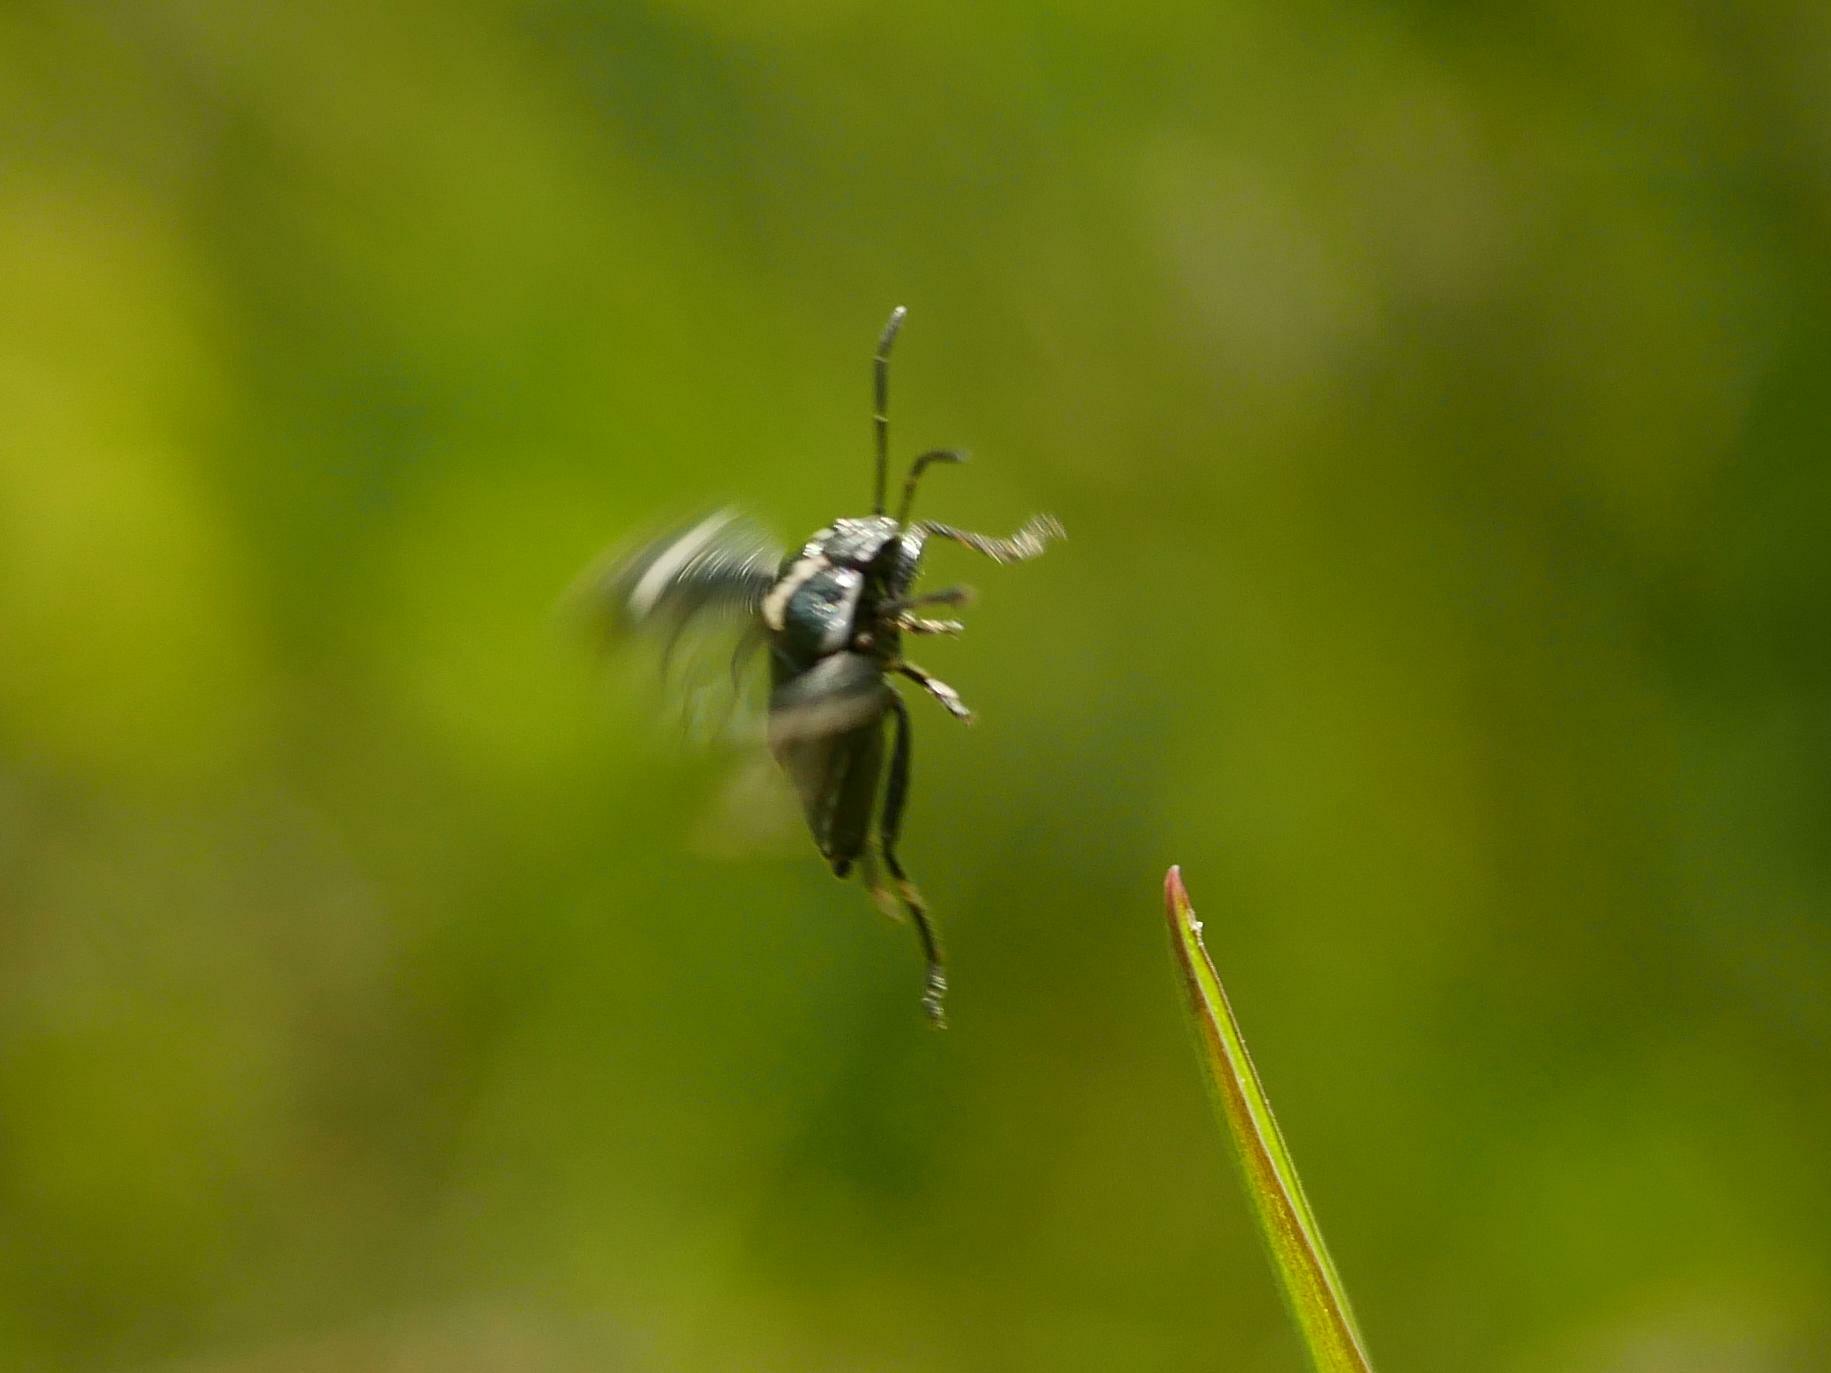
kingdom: Animalia
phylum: Arthropoda
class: Insecta
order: Hemiptera
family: Pentatomidae
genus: Eurydema
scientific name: Eurydema oleracea
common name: Cabbage bug
